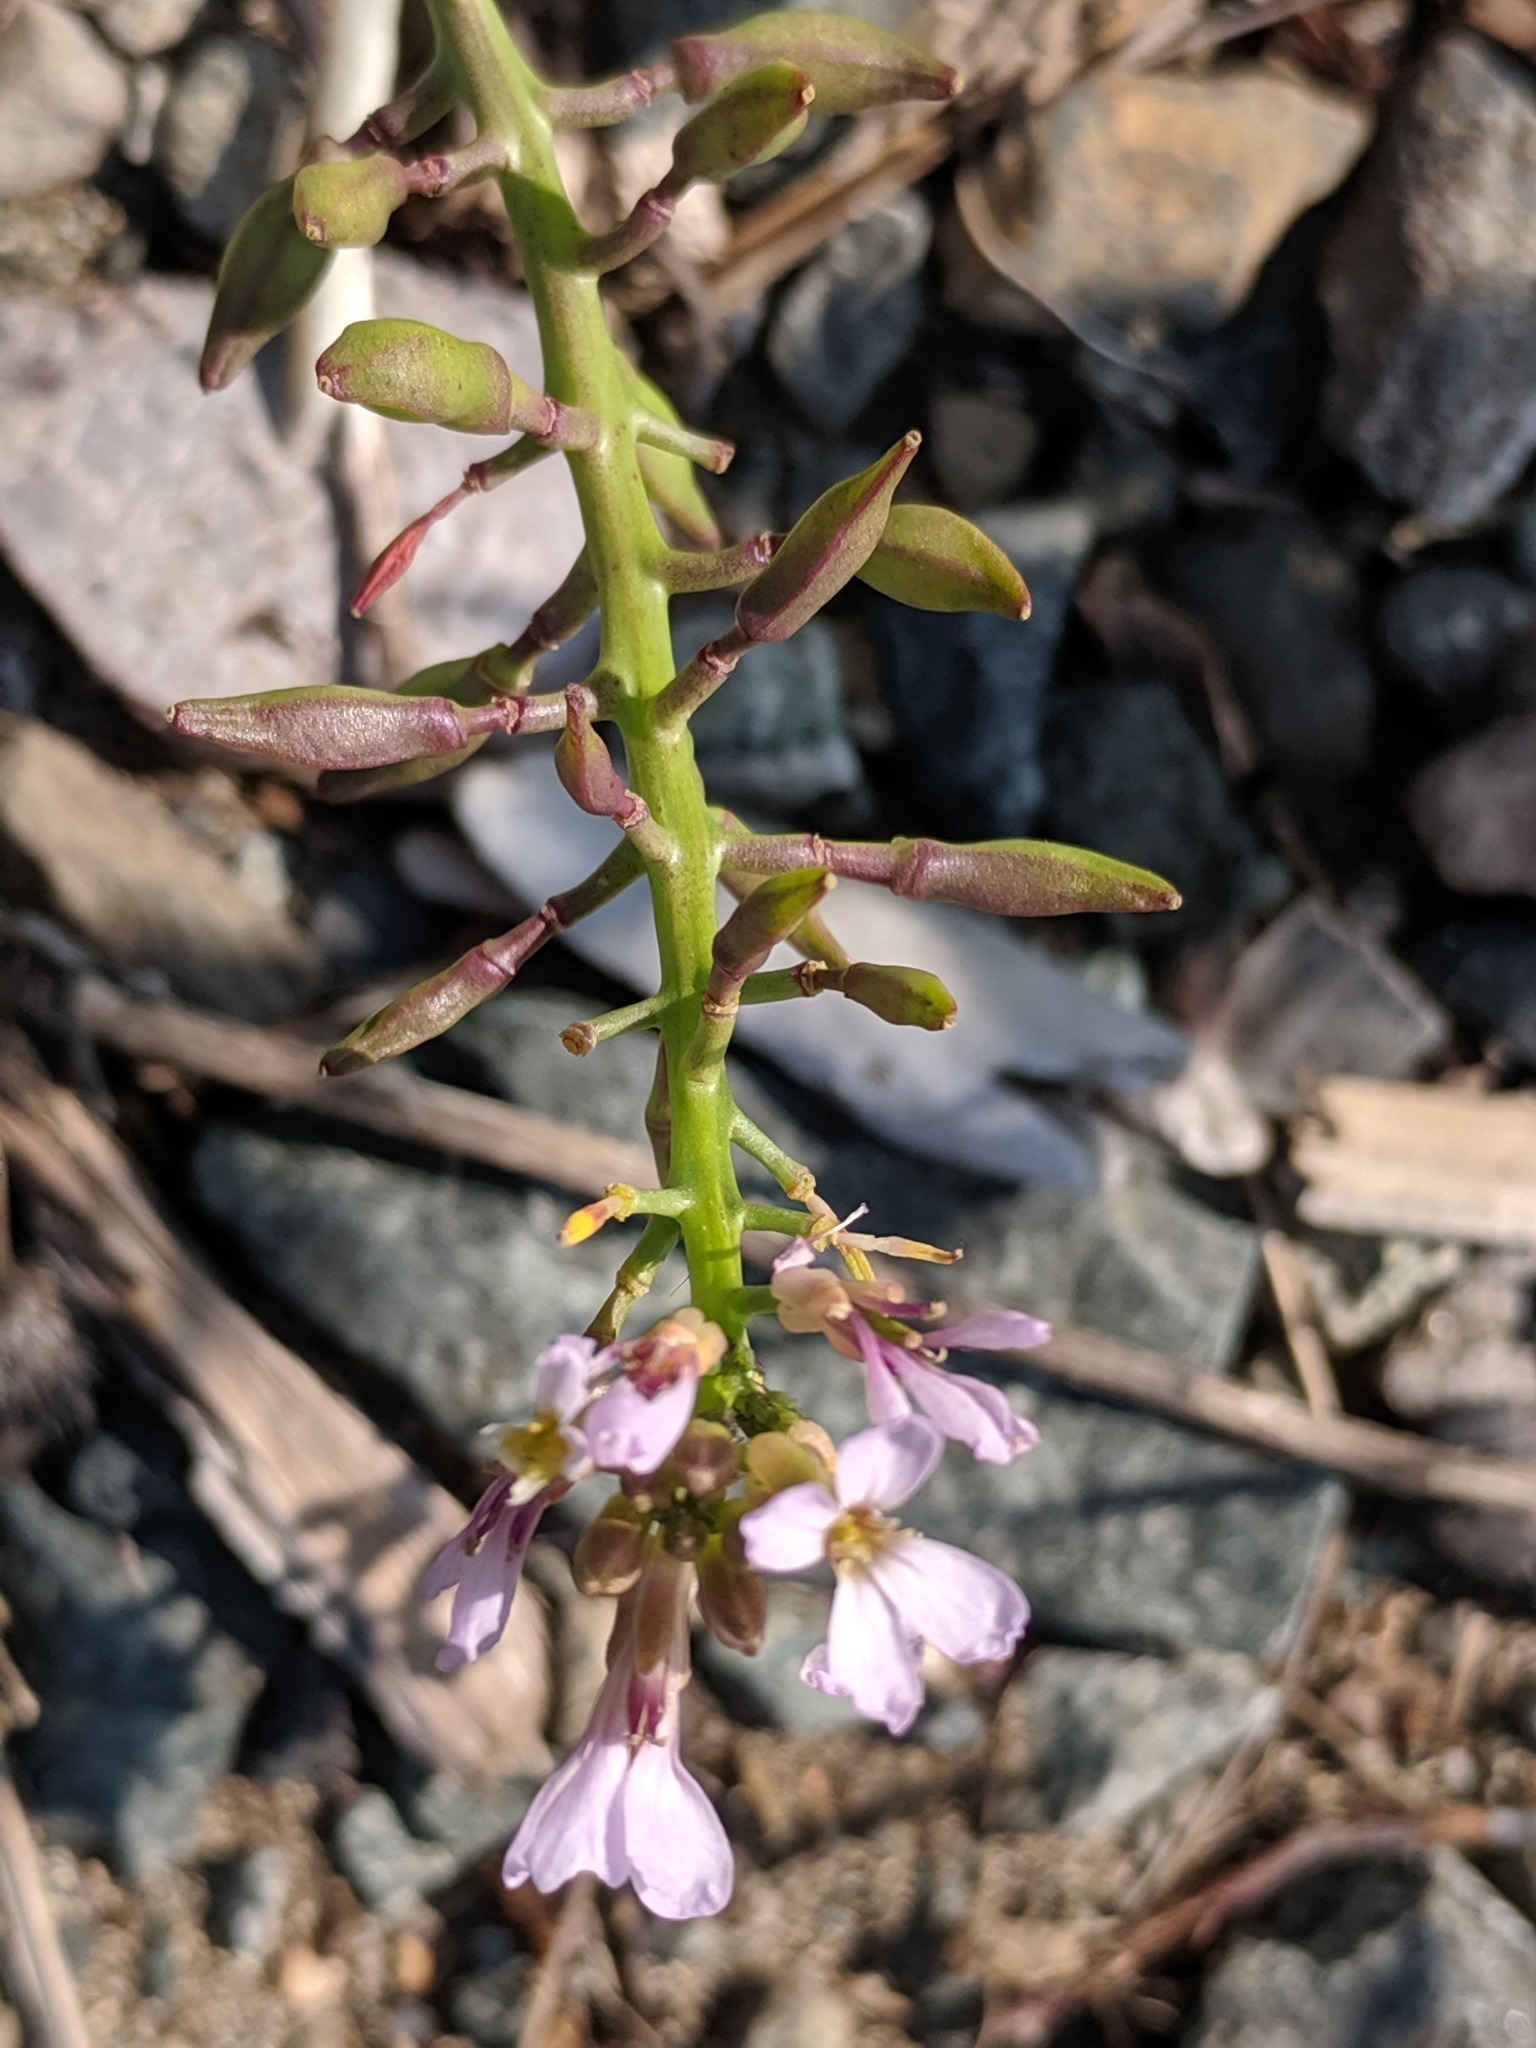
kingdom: Plantae
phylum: Tracheophyta
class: Magnoliopsida
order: Brassicales
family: Brassicaceae
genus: Cakile
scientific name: Cakile maritima
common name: Sea rocket
